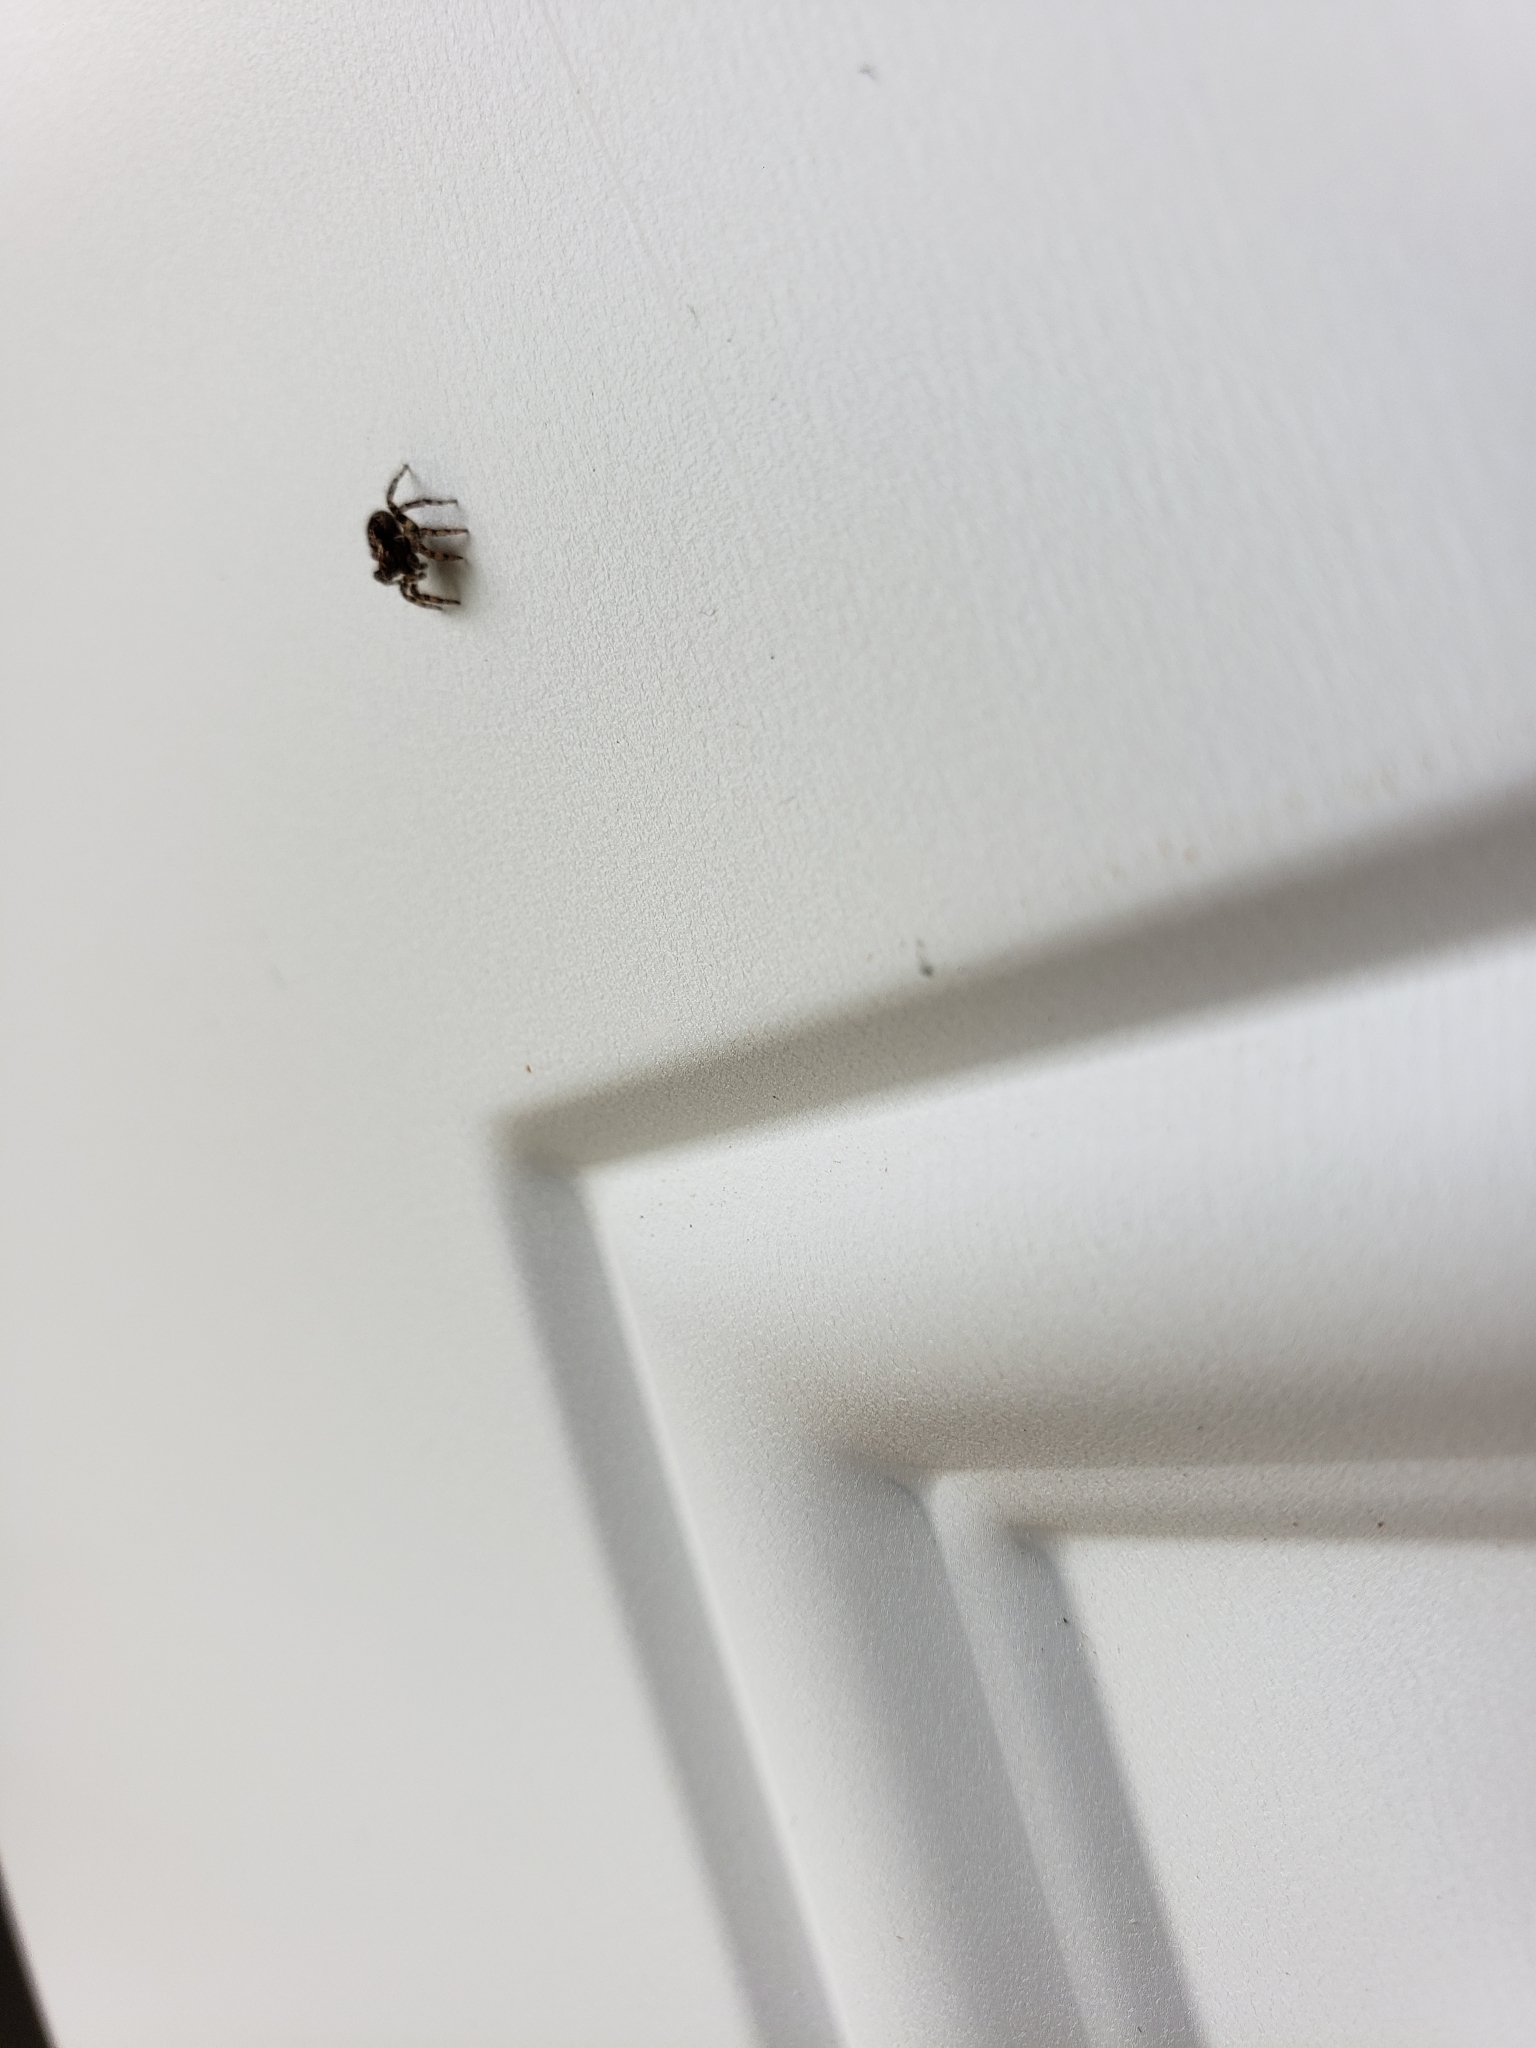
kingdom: Animalia
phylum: Arthropoda
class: Arachnida
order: Araneae
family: Salticidae
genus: Naphrys
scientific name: Naphrys pulex
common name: Flea jumping spider
